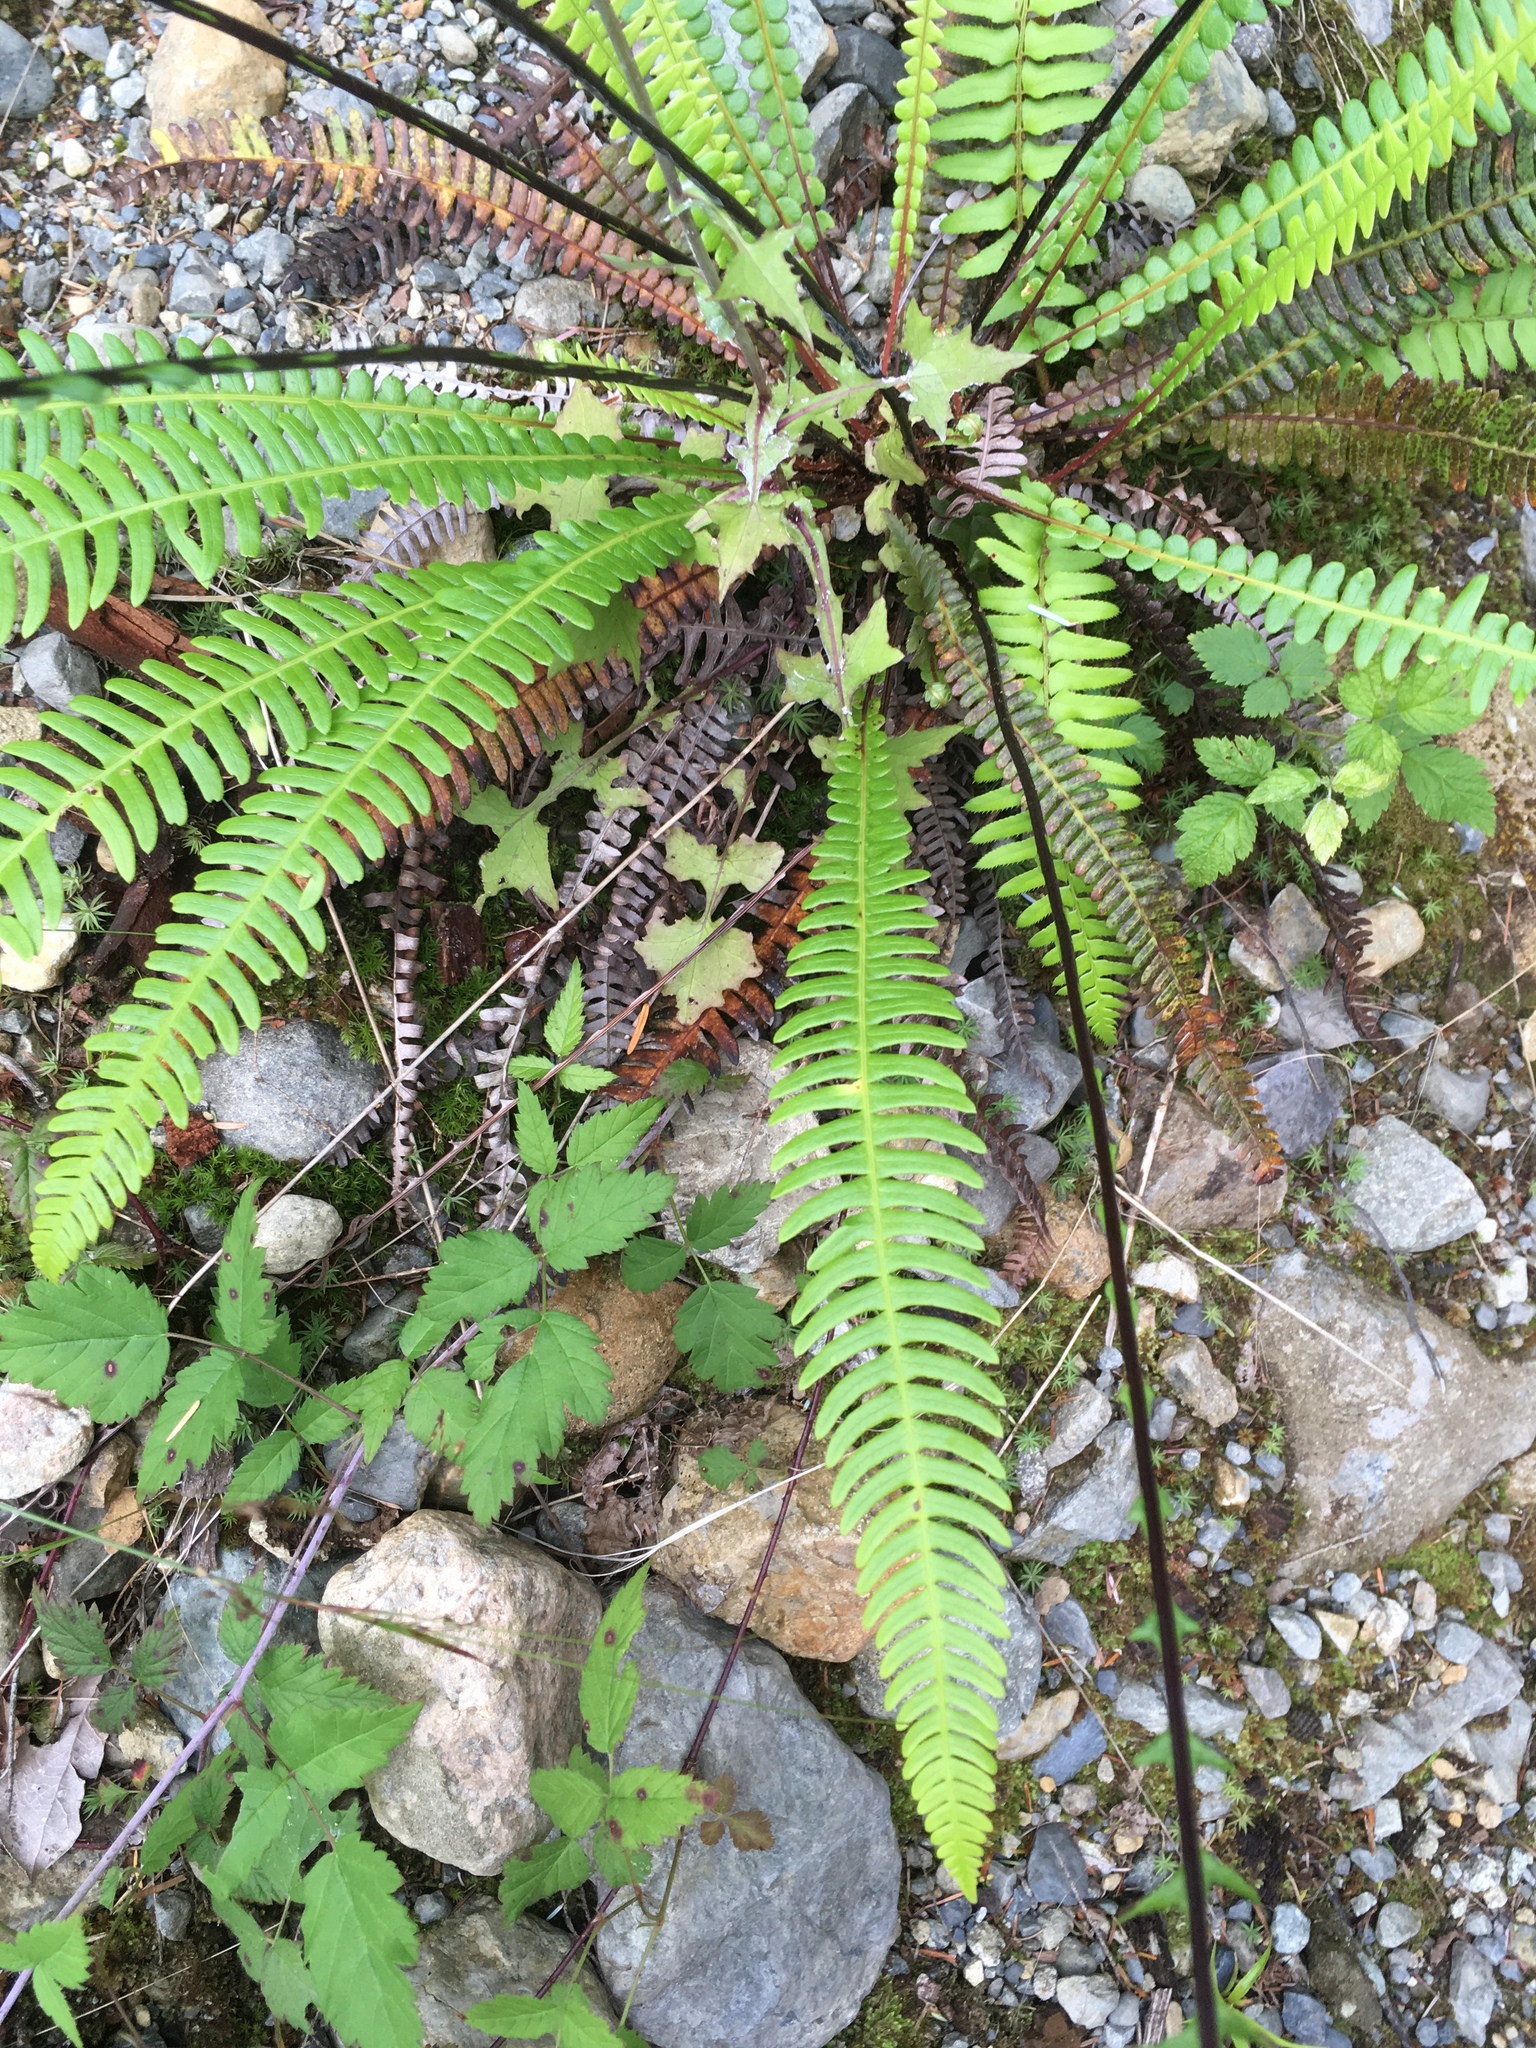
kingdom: Plantae
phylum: Tracheophyta
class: Polypodiopsida
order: Polypodiales
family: Blechnaceae
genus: Struthiopteris
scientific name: Struthiopteris spicant
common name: Deer fern
